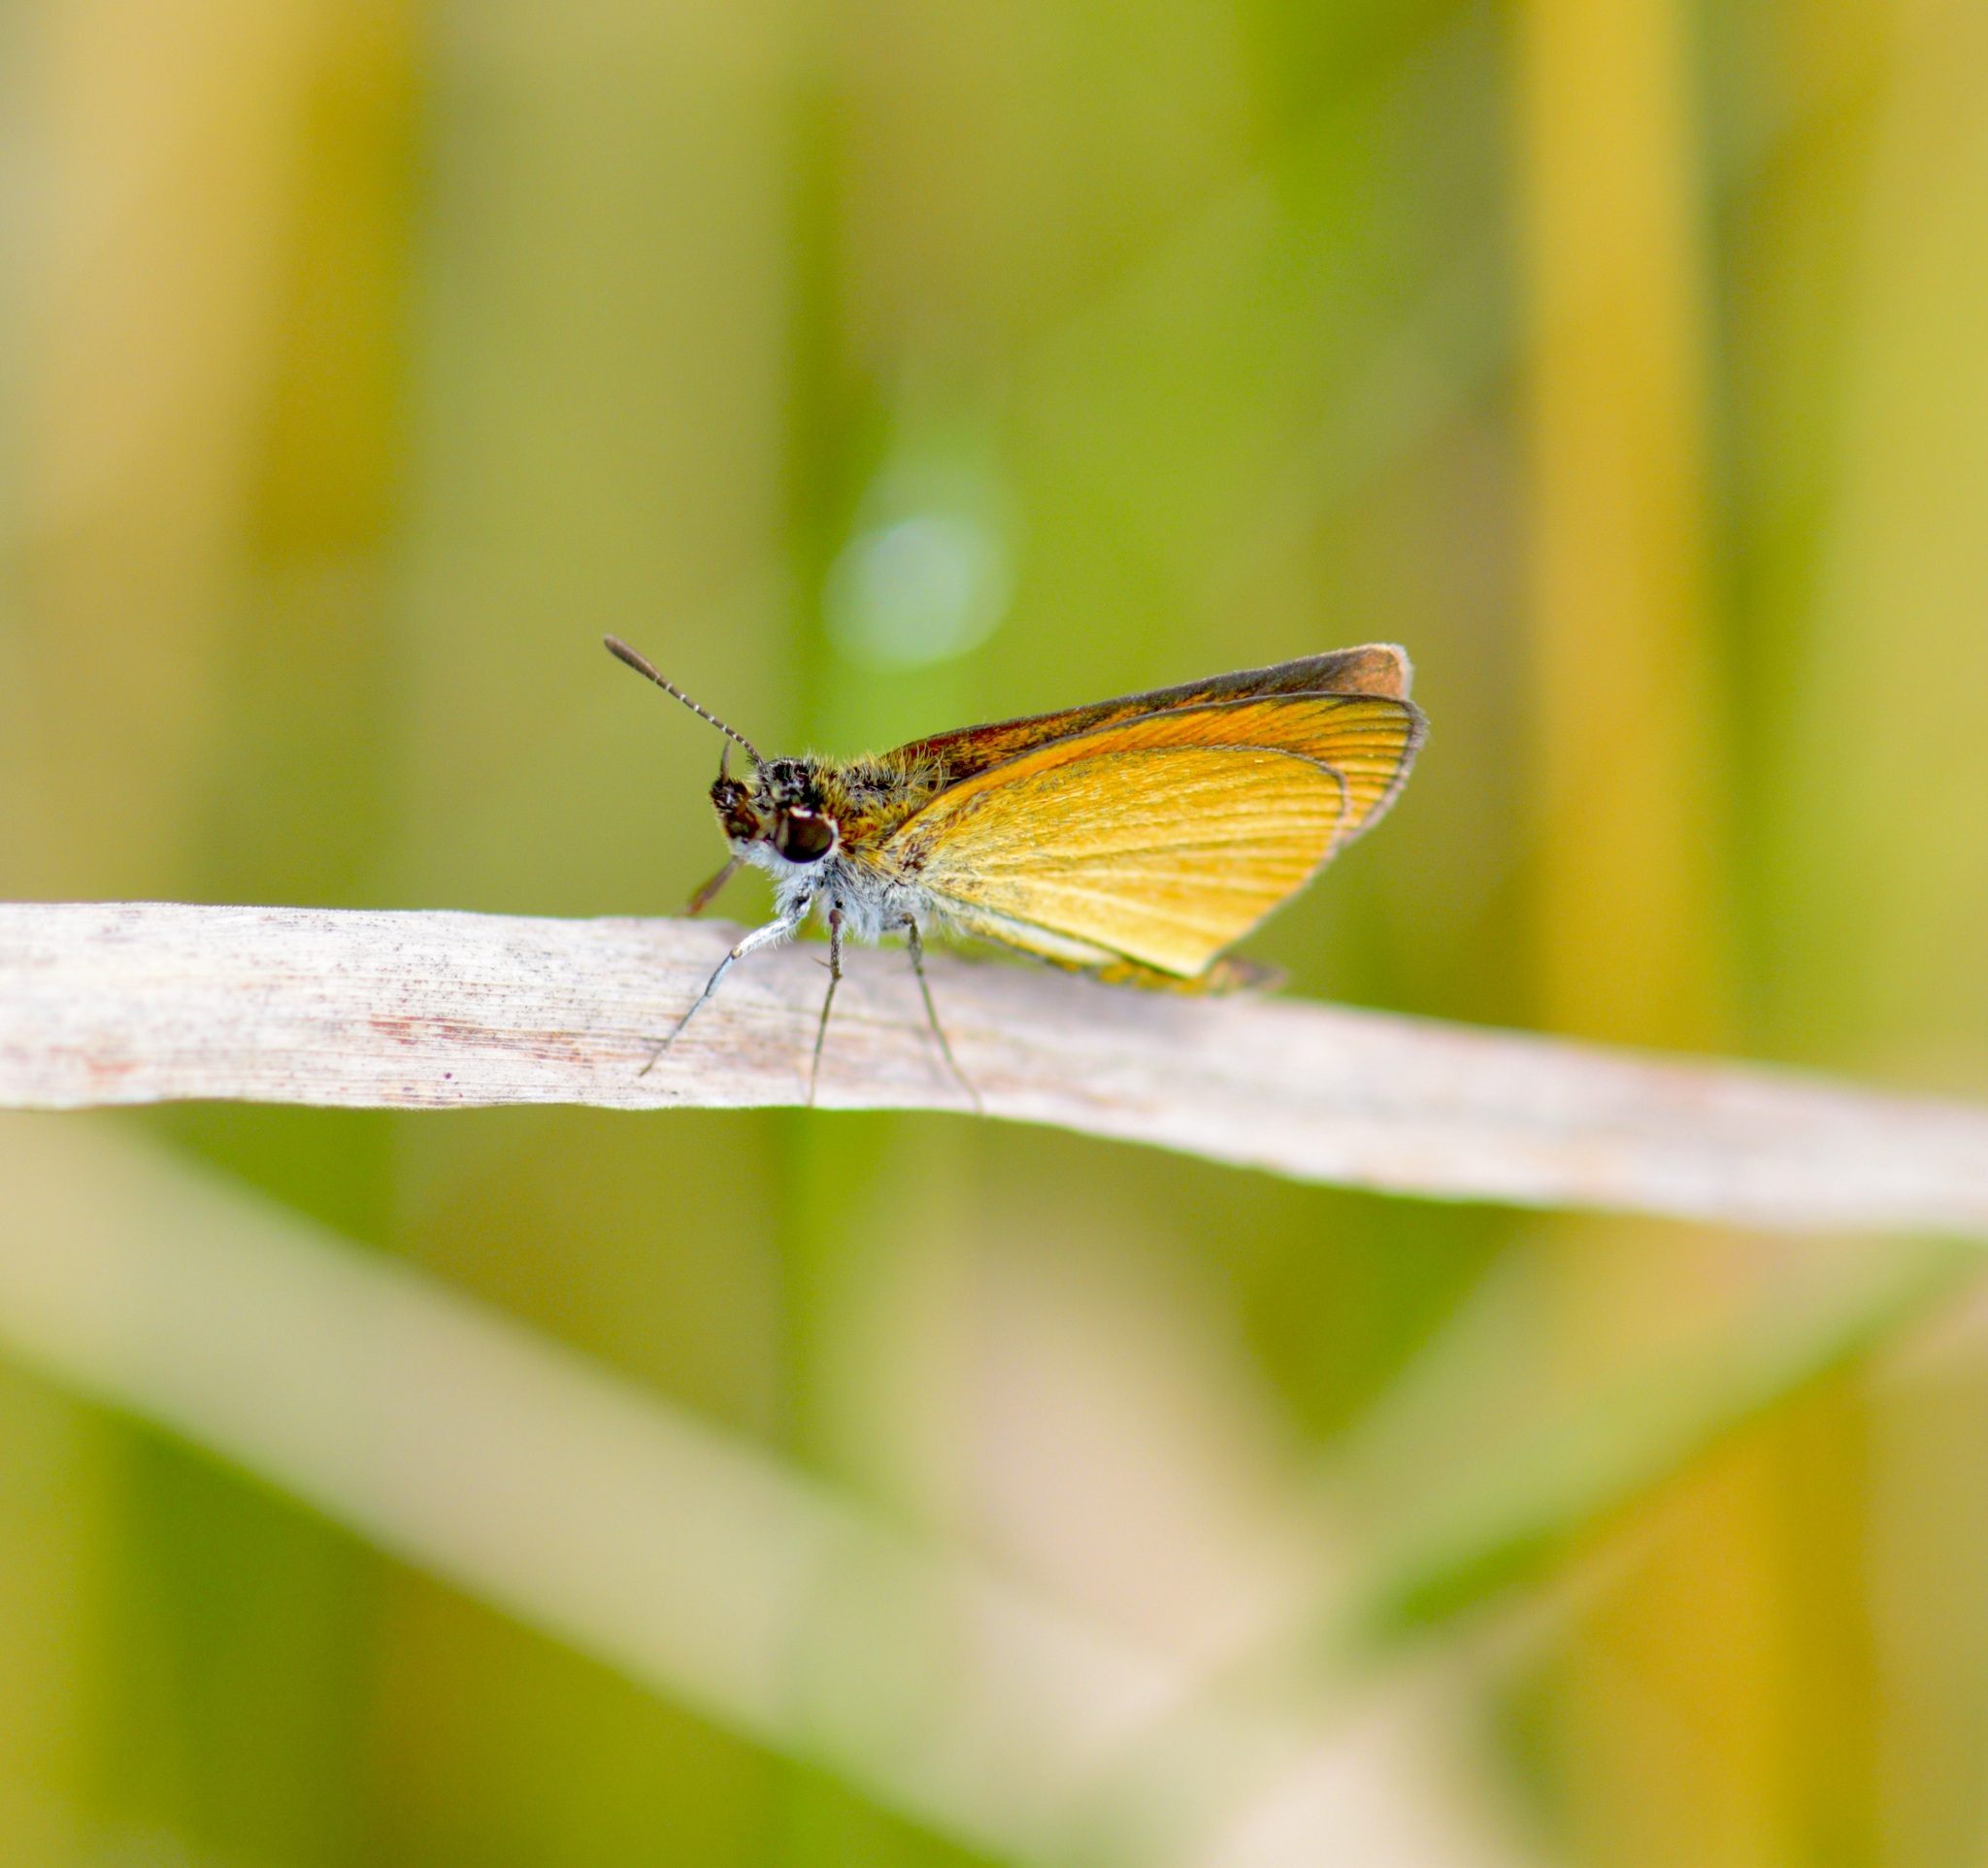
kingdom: Animalia
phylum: Arthropoda
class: Insecta
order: Lepidoptera
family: Hesperiidae
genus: Ancyloxypha
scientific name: Ancyloxypha numitor
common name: Least skipper
